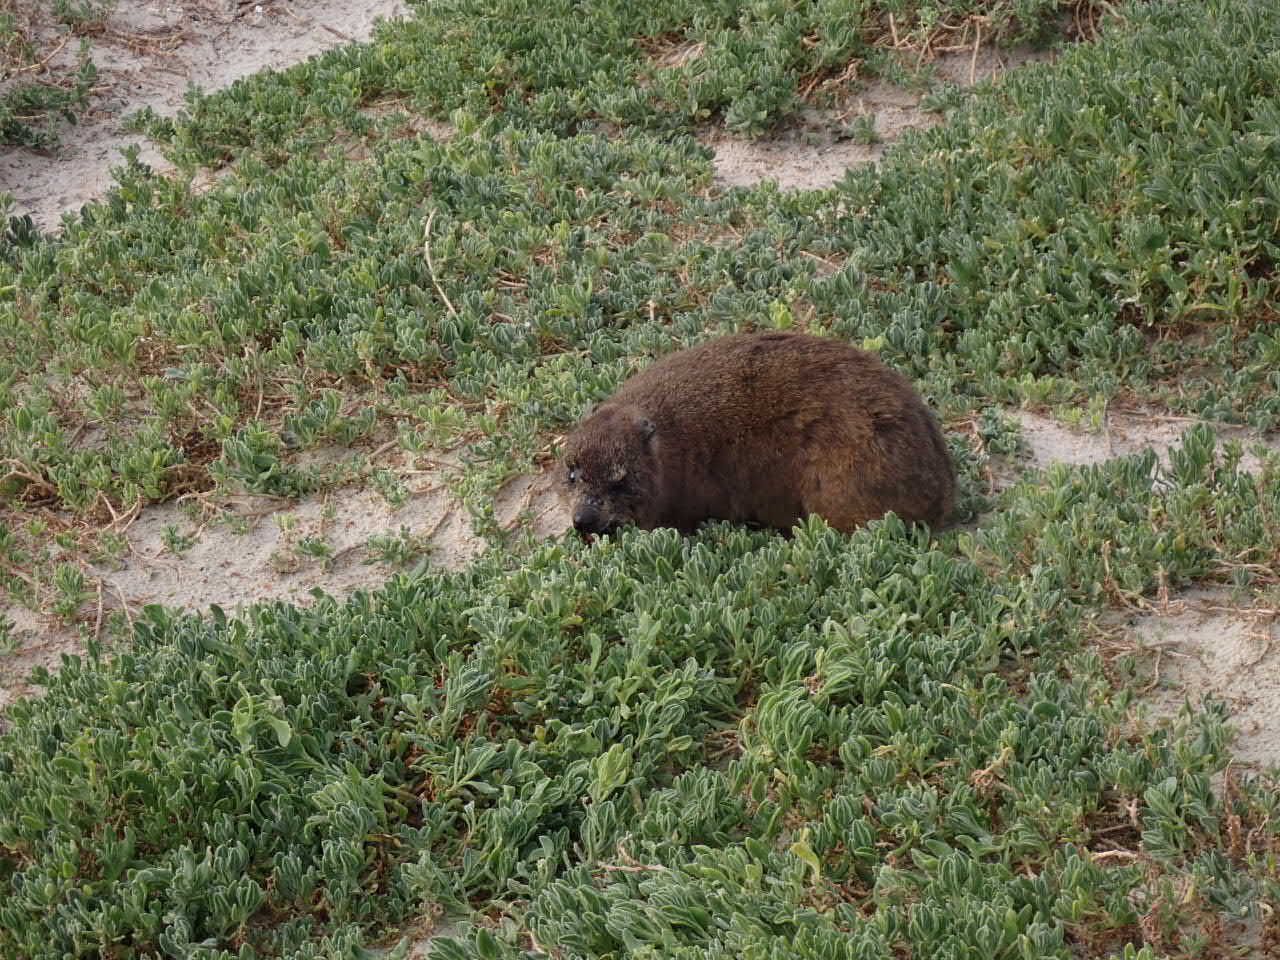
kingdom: Animalia
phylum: Chordata
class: Mammalia
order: Hyracoidea
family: Procaviidae
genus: Procavia
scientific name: Procavia capensis
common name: Rock hyrax
